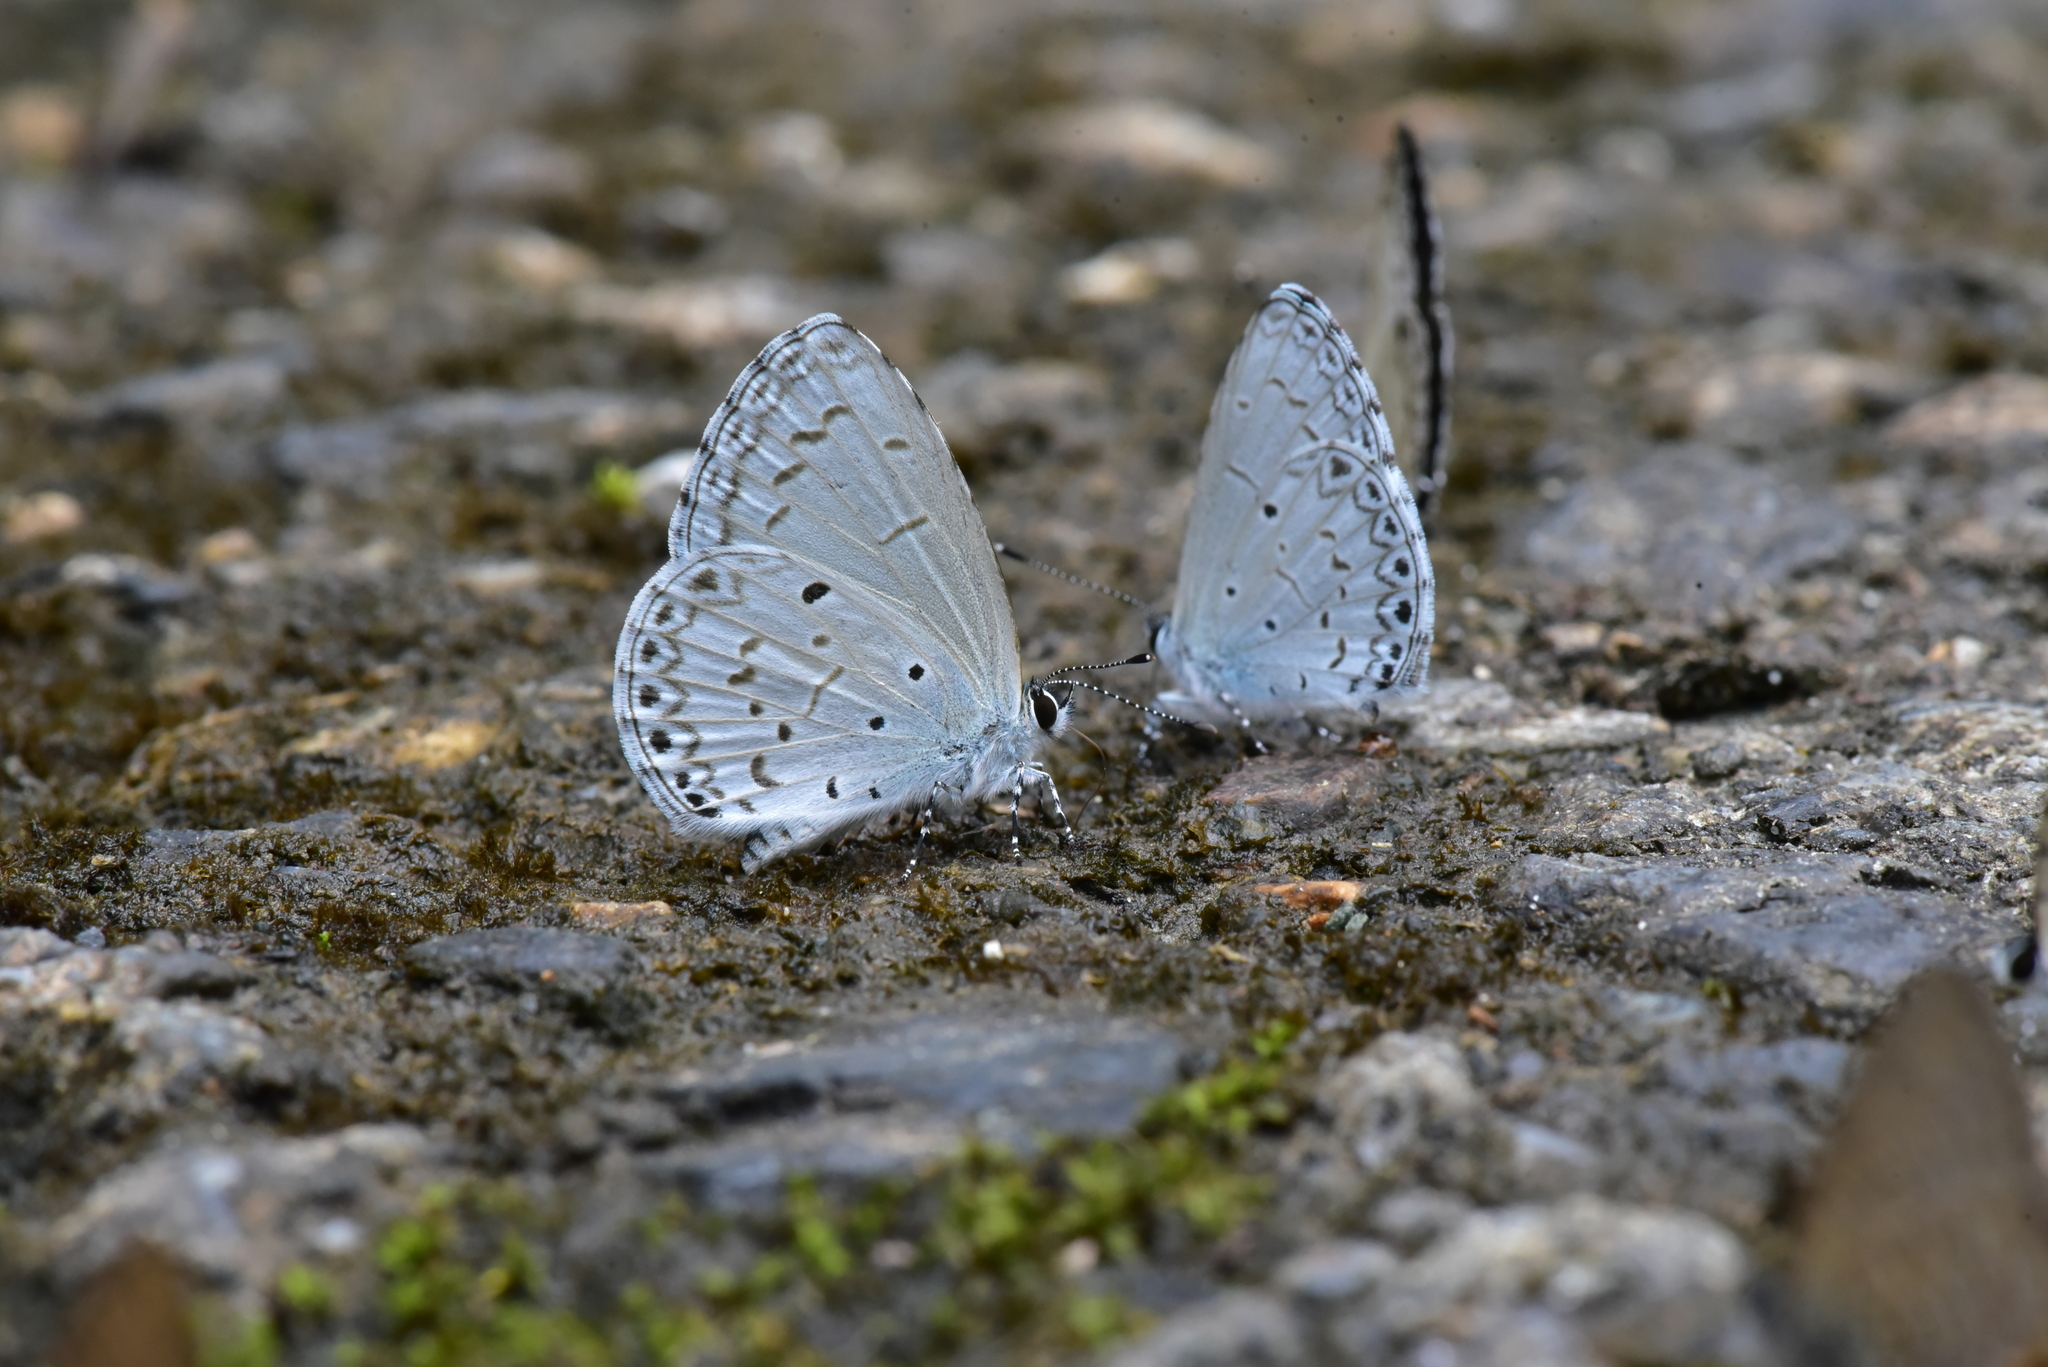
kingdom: Animalia
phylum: Arthropoda
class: Insecta
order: Lepidoptera
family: Lycaenidae
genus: Celastrina
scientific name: Celastrina lavendularis
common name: Plain hedge blue
